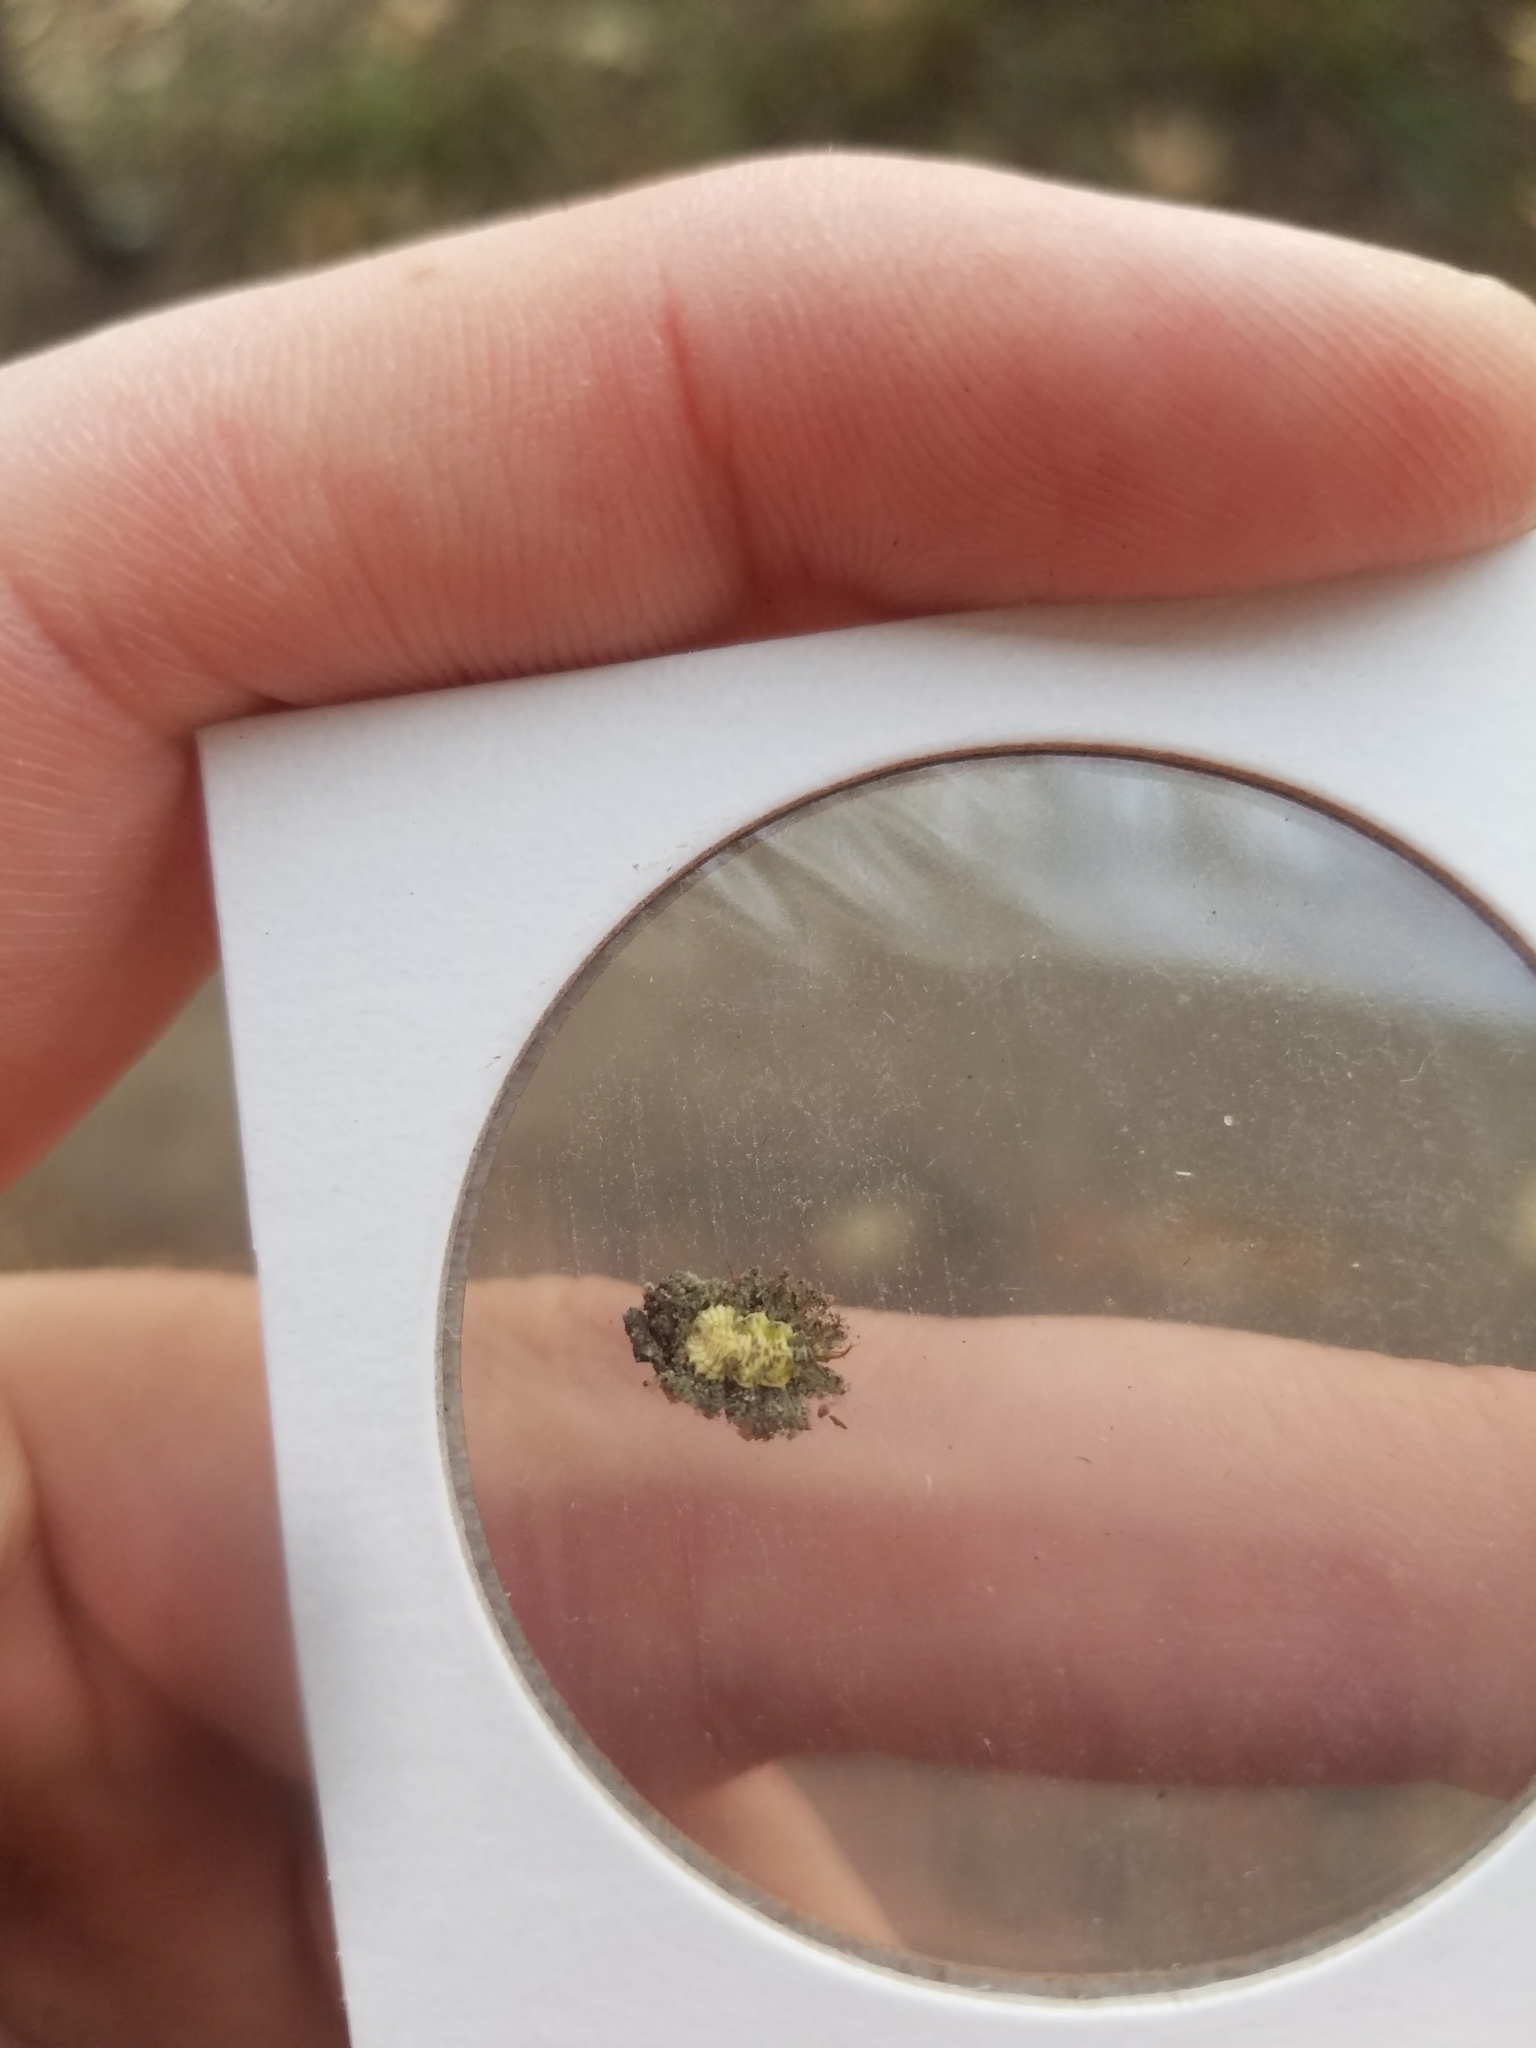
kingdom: Animalia
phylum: Arthropoda
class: Insecta
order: Neuroptera
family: Chrysopidae
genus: Leucochrysa
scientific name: Leucochrysa pavida
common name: Lichen-carrying green lacewing
